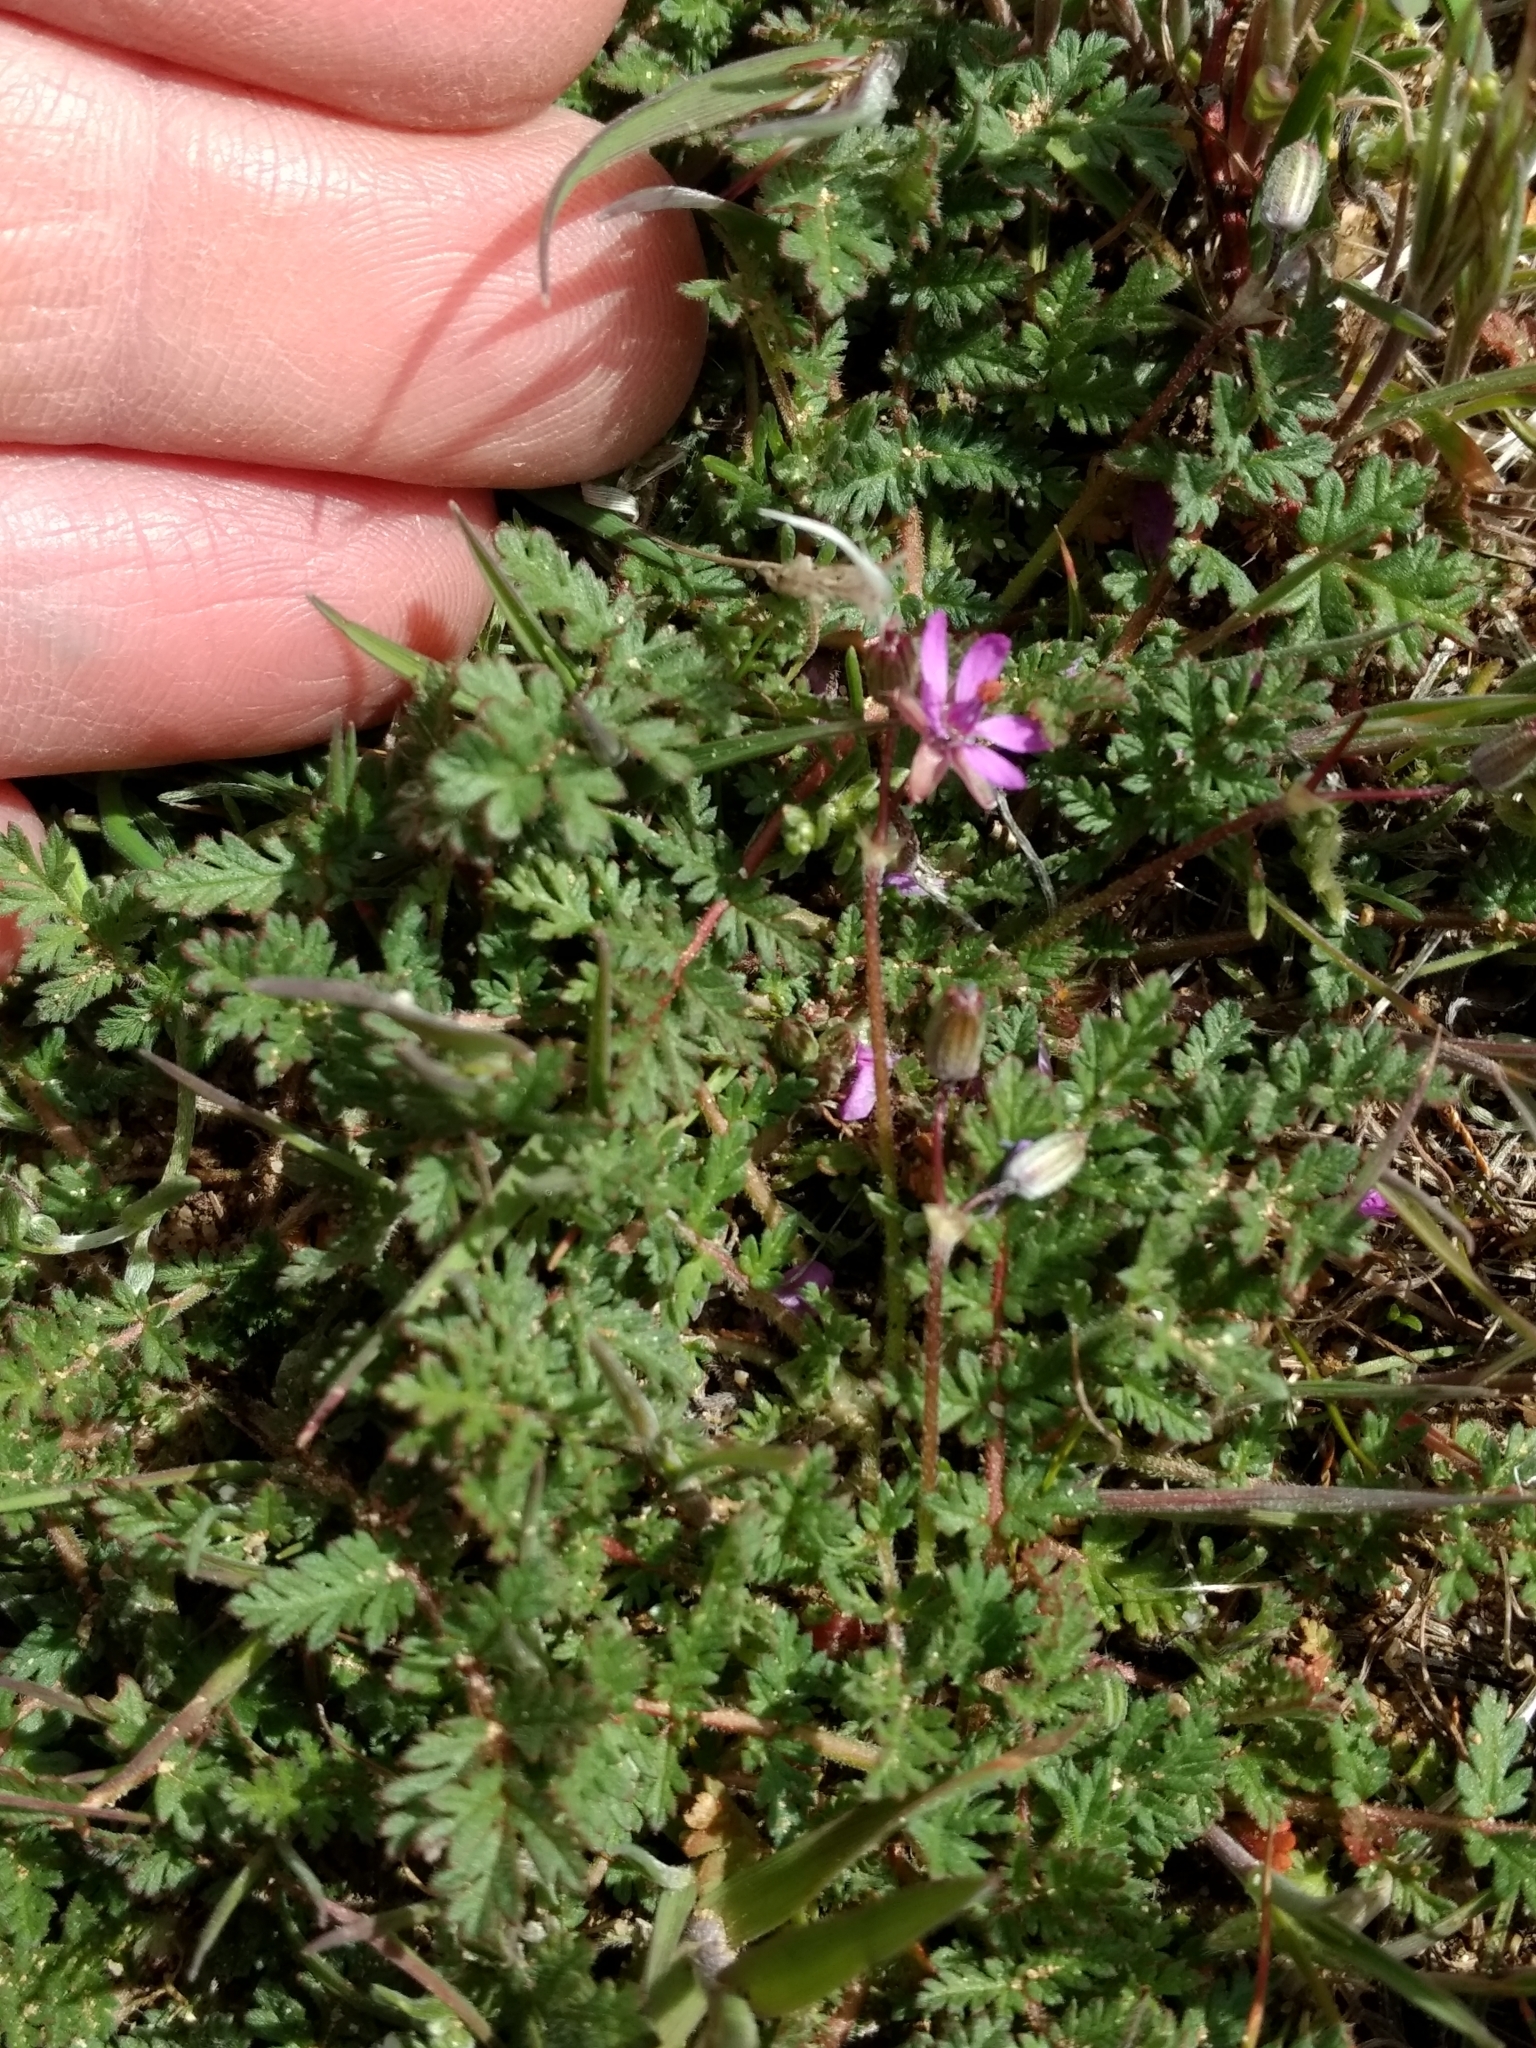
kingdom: Plantae
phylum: Tracheophyta
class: Magnoliopsida
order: Geraniales
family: Geraniaceae
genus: Erodium
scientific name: Erodium cicutarium
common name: Common stork's-bill
